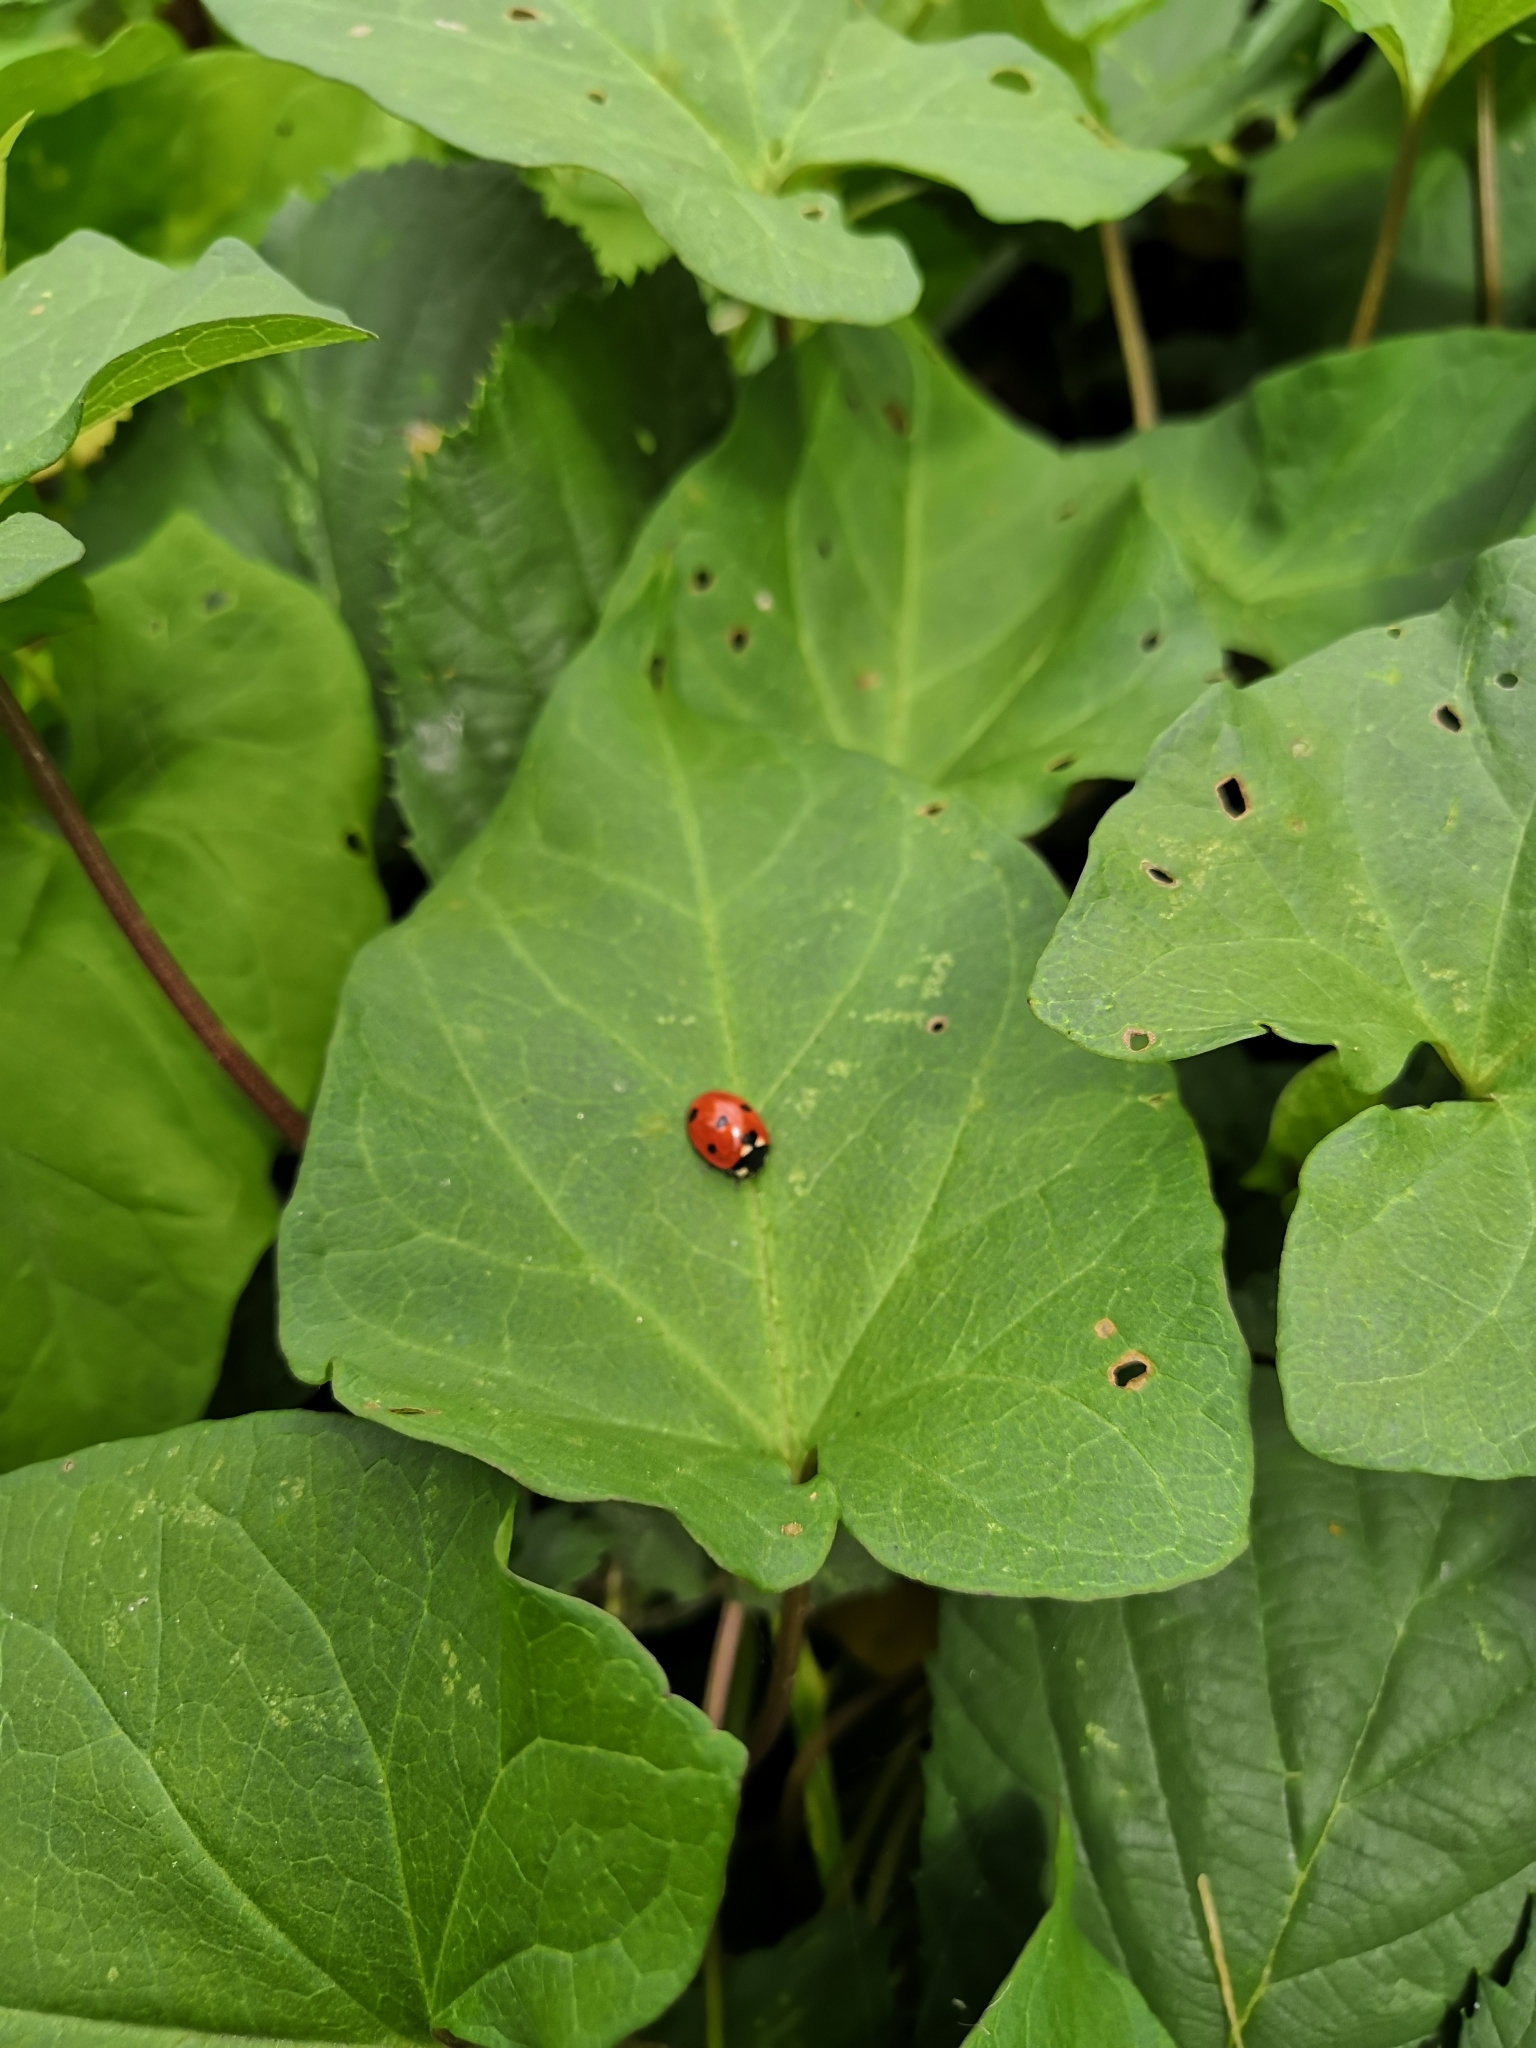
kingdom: Animalia
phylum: Arthropoda
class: Insecta
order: Coleoptera
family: Coccinellidae
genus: Coccinella
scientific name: Coccinella septempunctata
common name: Sevenspotted lady beetle
